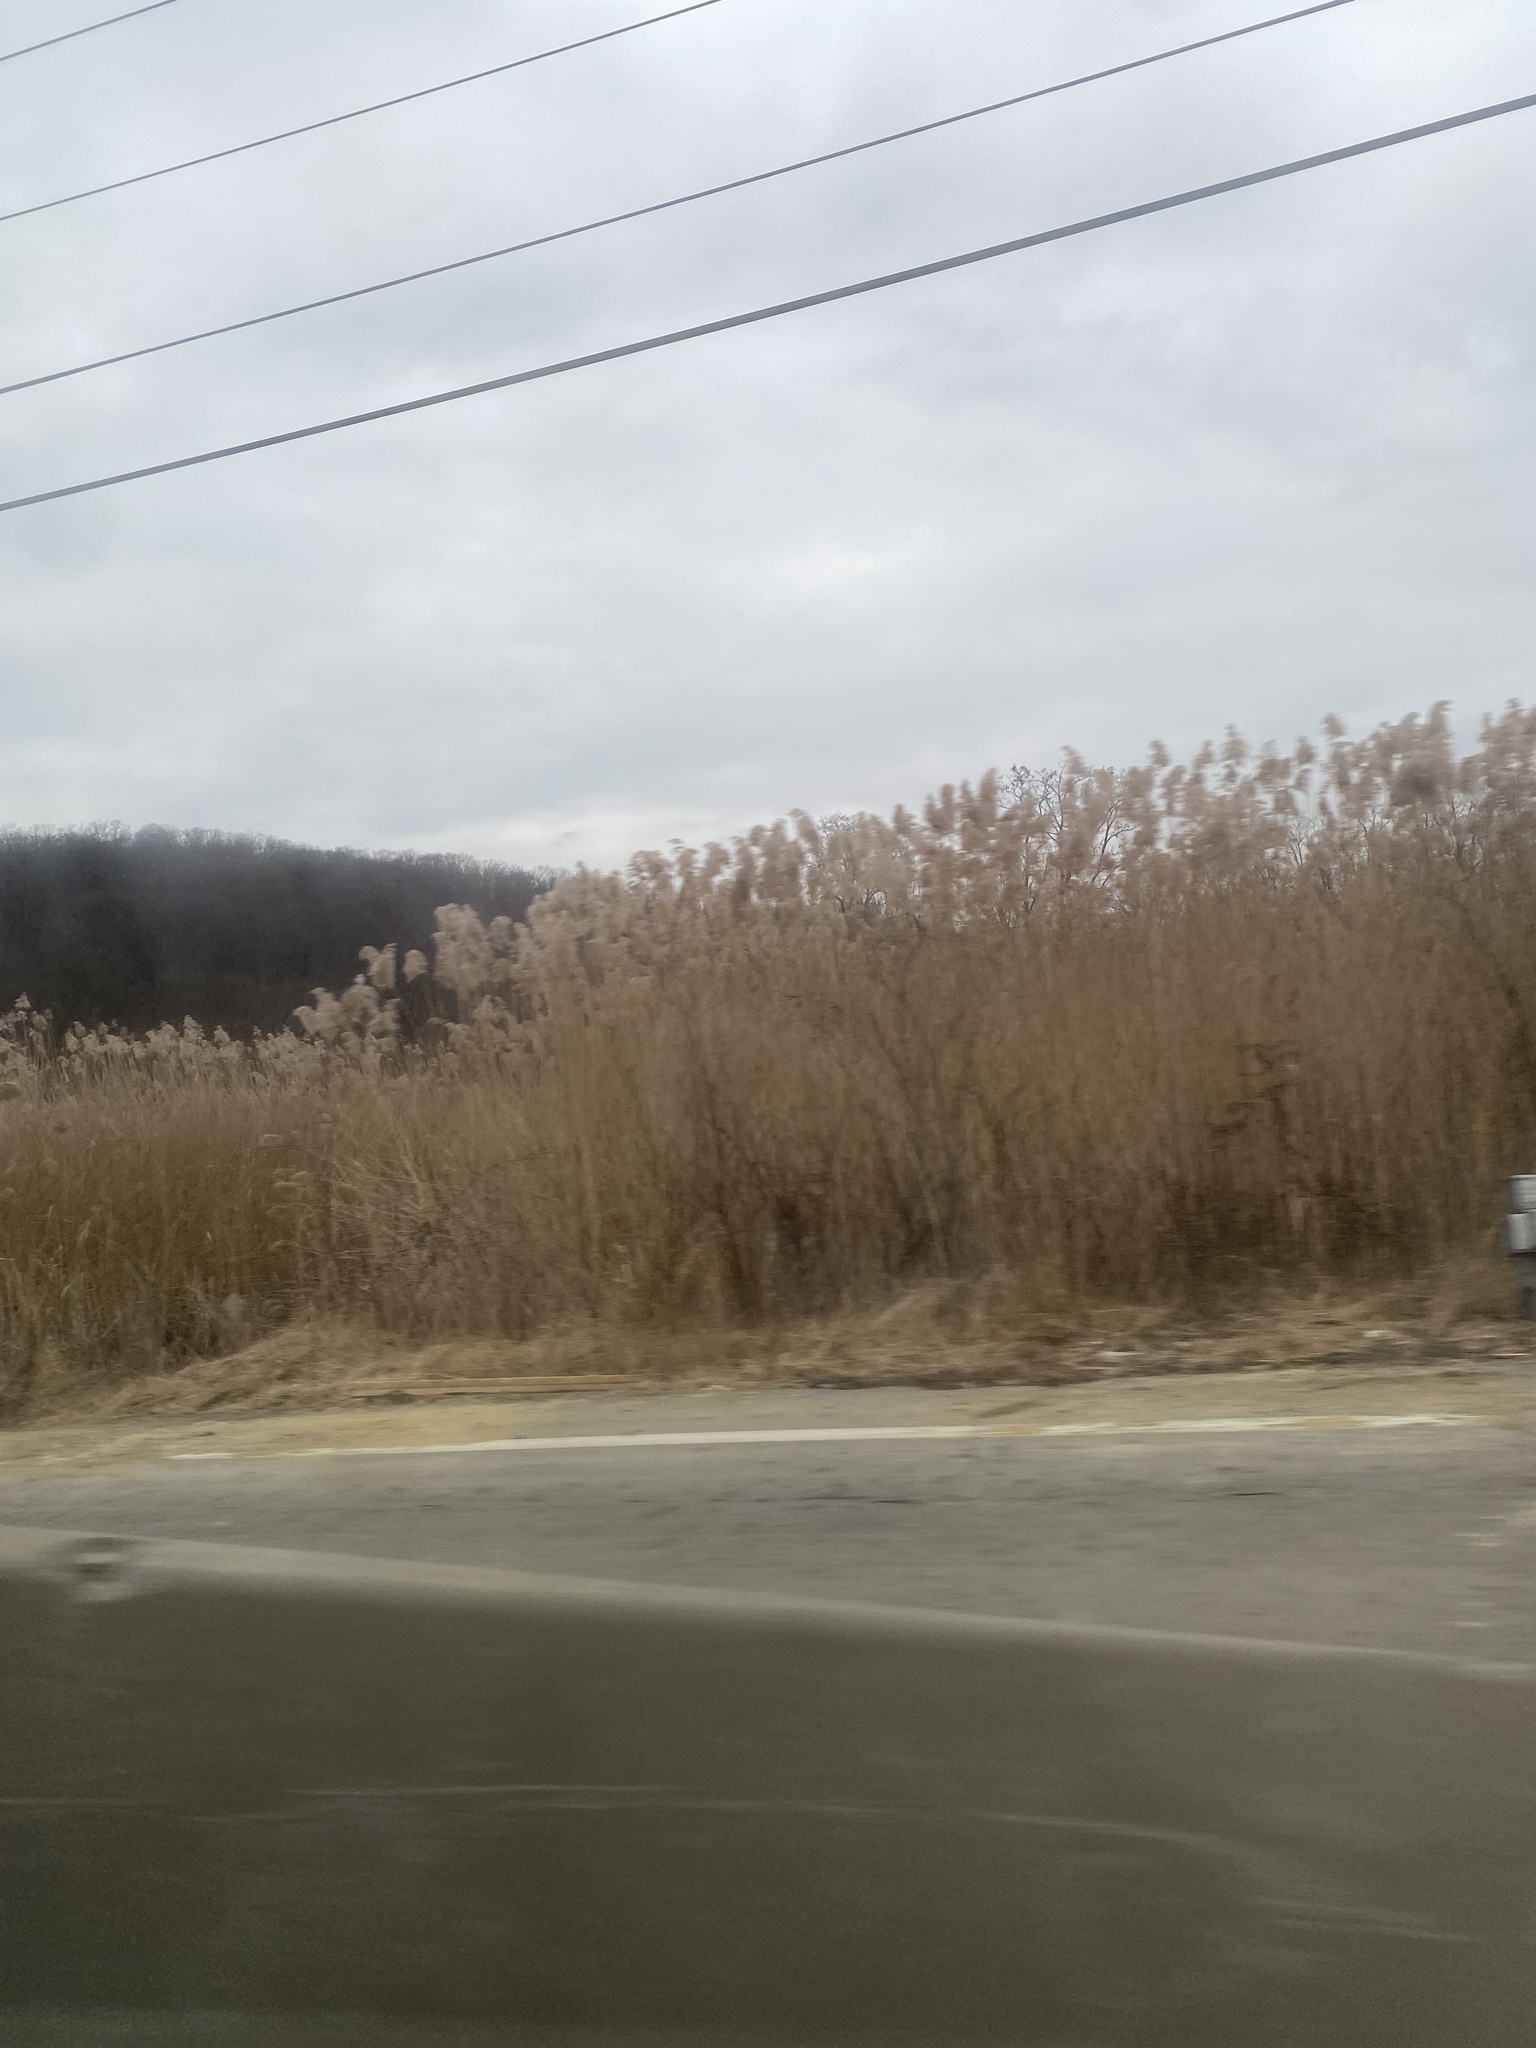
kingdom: Plantae
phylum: Tracheophyta
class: Liliopsida
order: Poales
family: Poaceae
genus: Phragmites
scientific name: Phragmites australis
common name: Common reed
